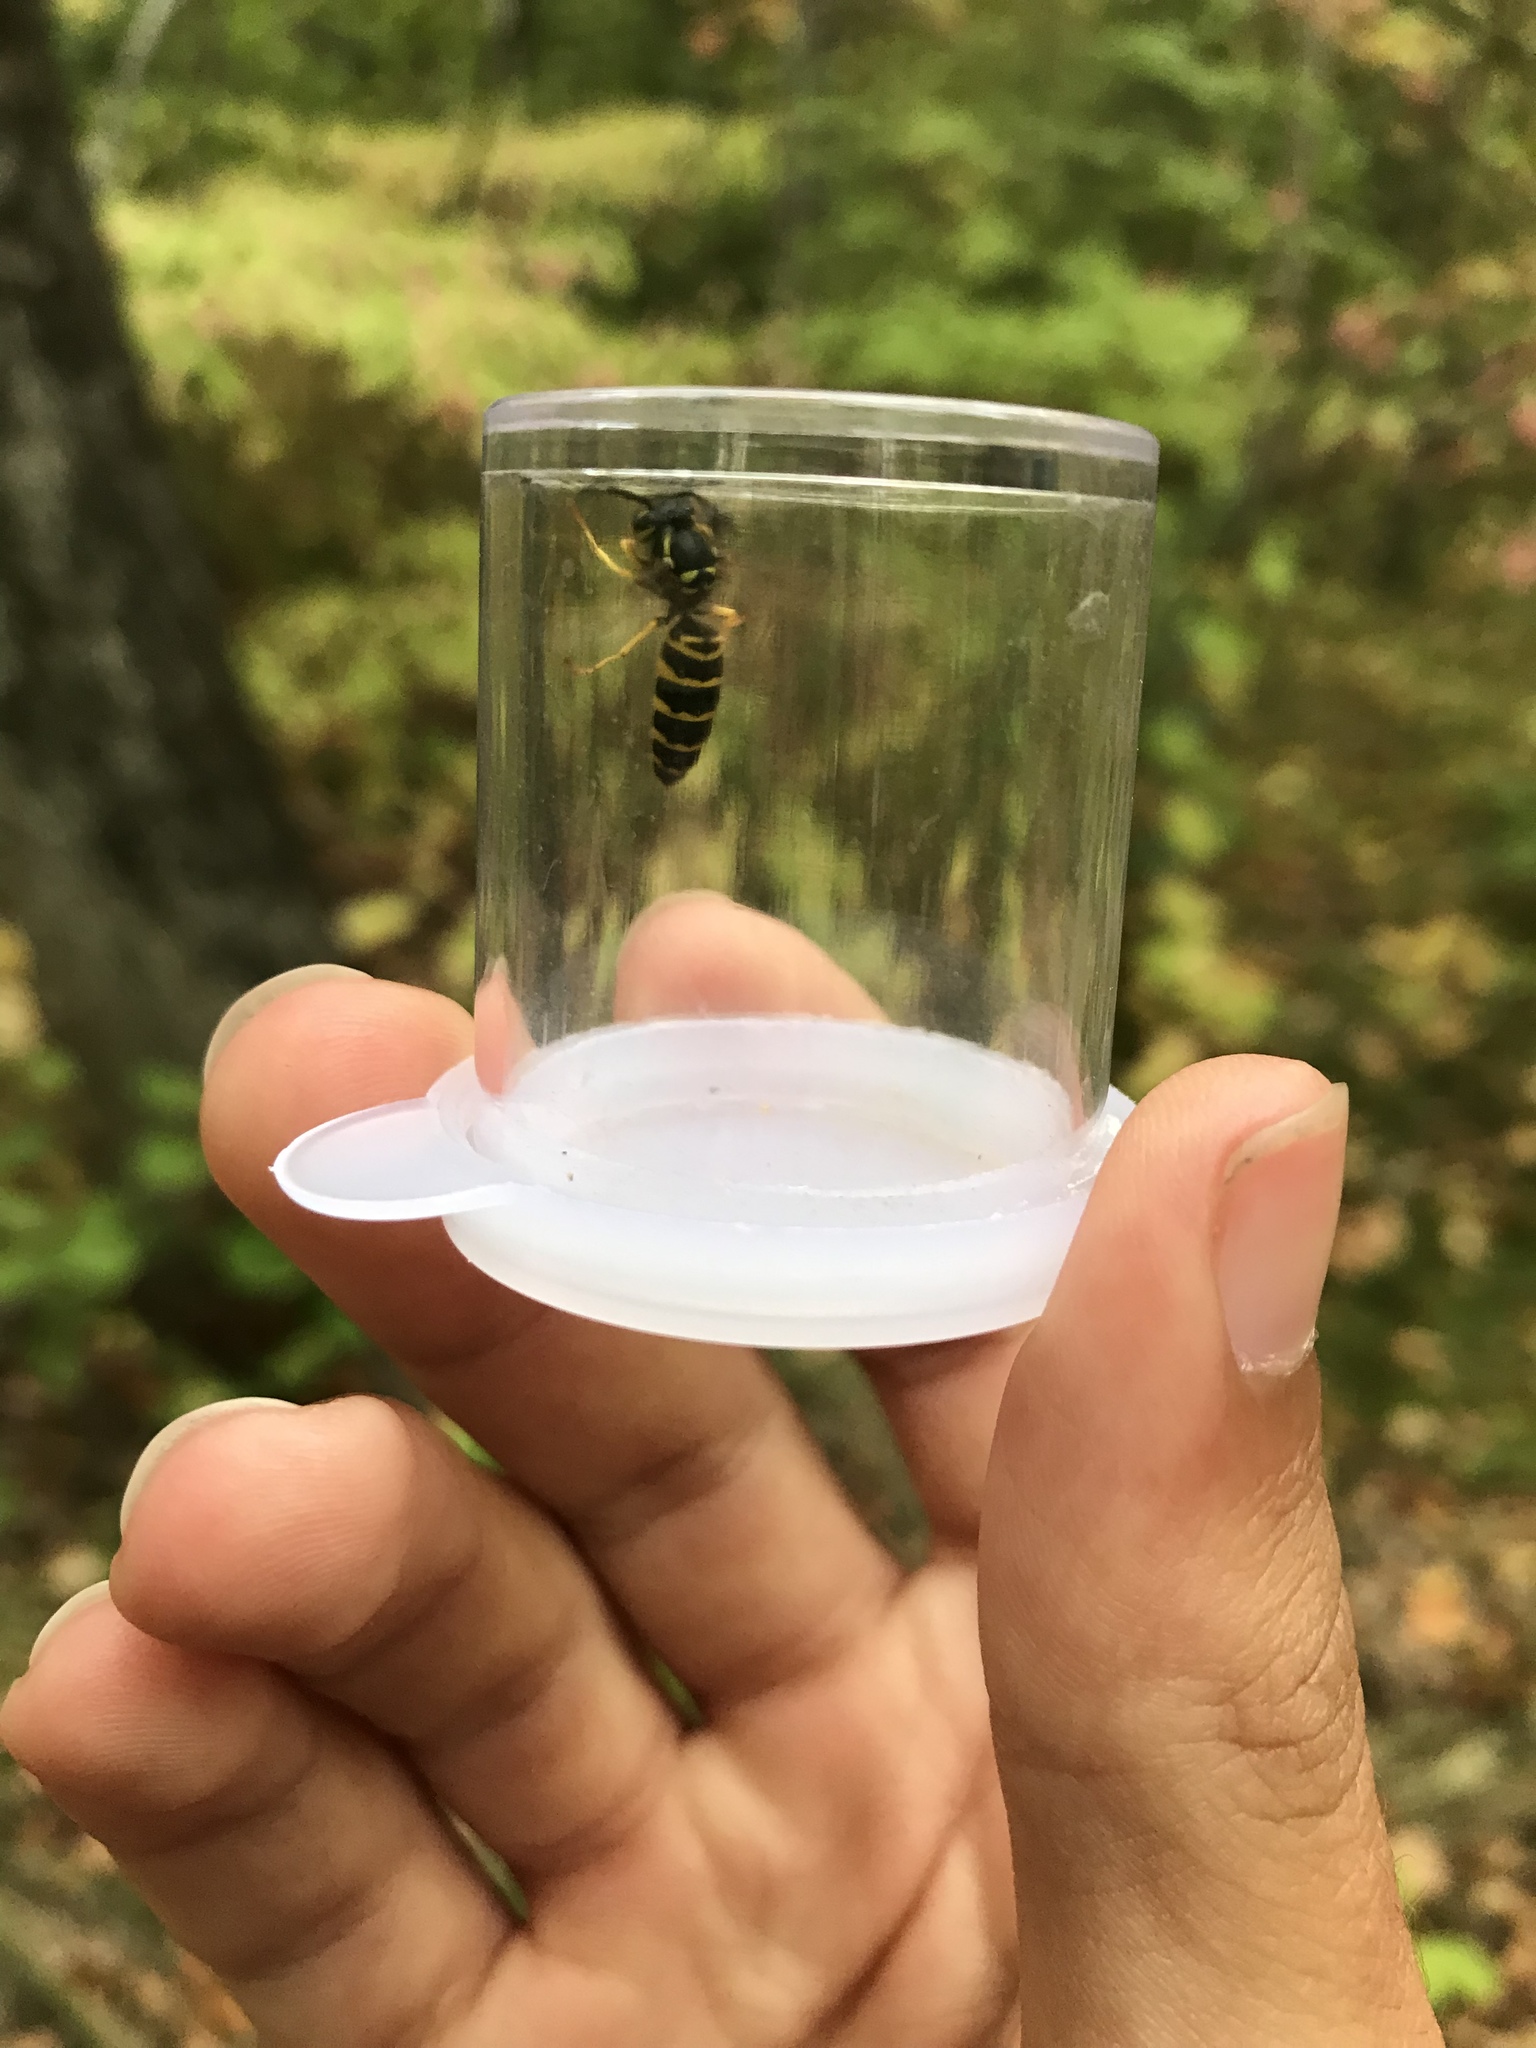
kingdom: Animalia
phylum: Arthropoda
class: Insecta
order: Hymenoptera
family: Vespidae
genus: Vespula
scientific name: Vespula maculifrons
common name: Eastern yellowjacket
